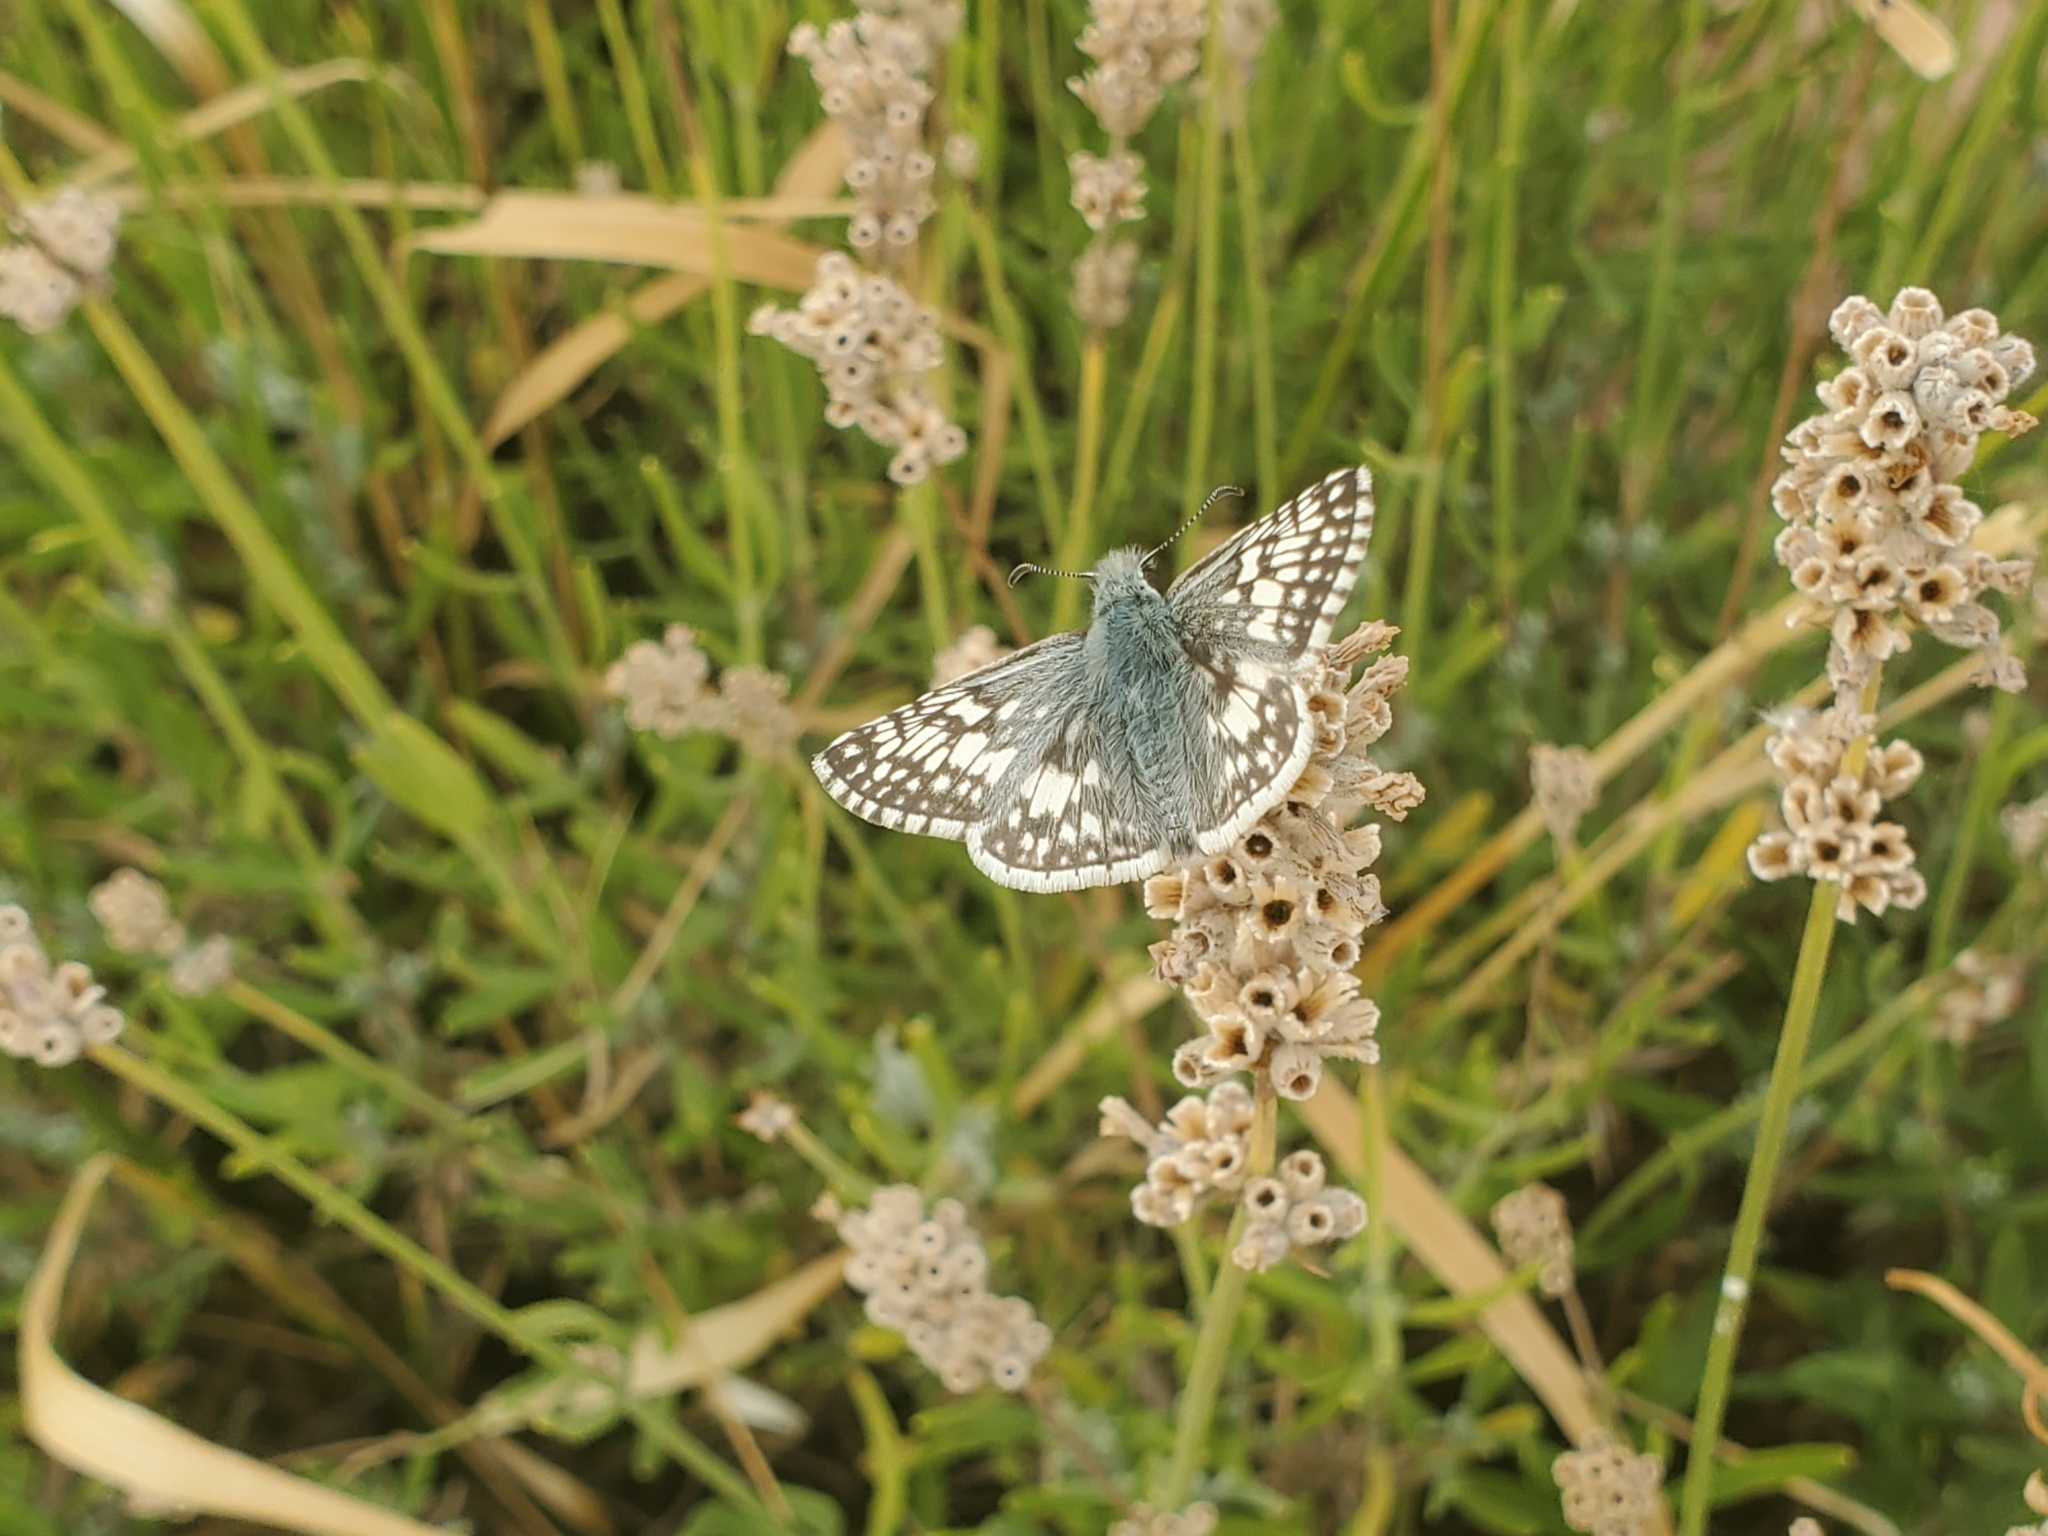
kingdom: Animalia
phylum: Arthropoda
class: Insecta
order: Lepidoptera
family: Hesperiidae
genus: Burnsius
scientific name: Burnsius communis
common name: Common checkered-skipper
